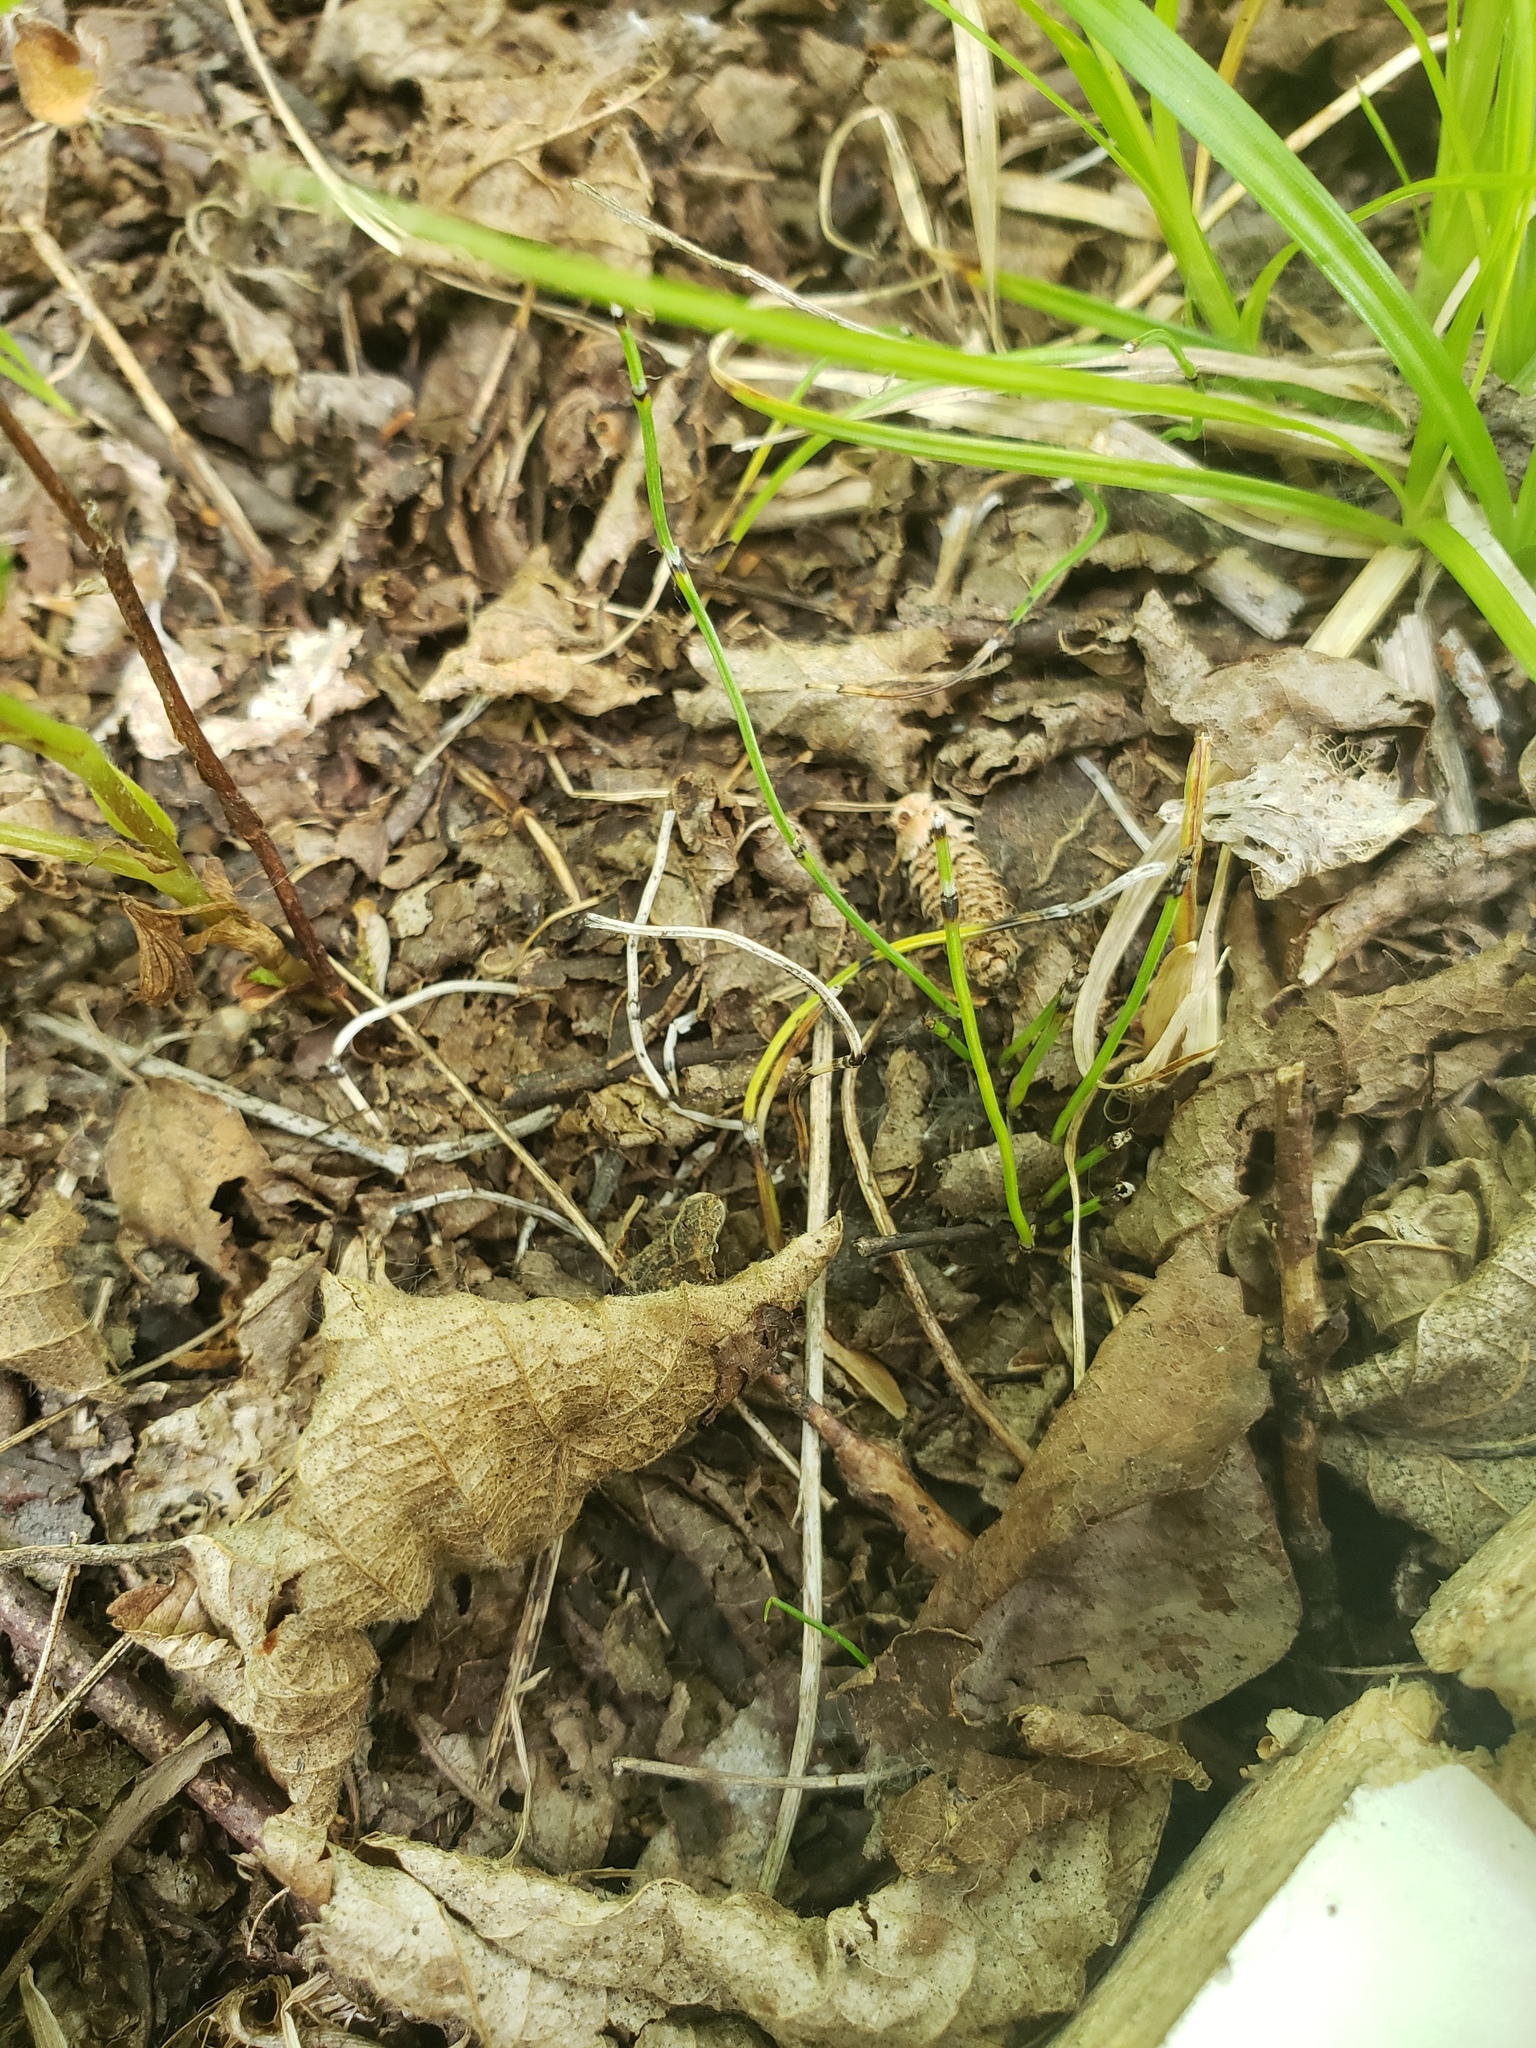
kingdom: Plantae
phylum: Tracheophyta
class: Polypodiopsida
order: Equisetales
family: Equisetaceae
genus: Equisetum
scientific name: Equisetum scirpoides
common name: Delicate horsetail
